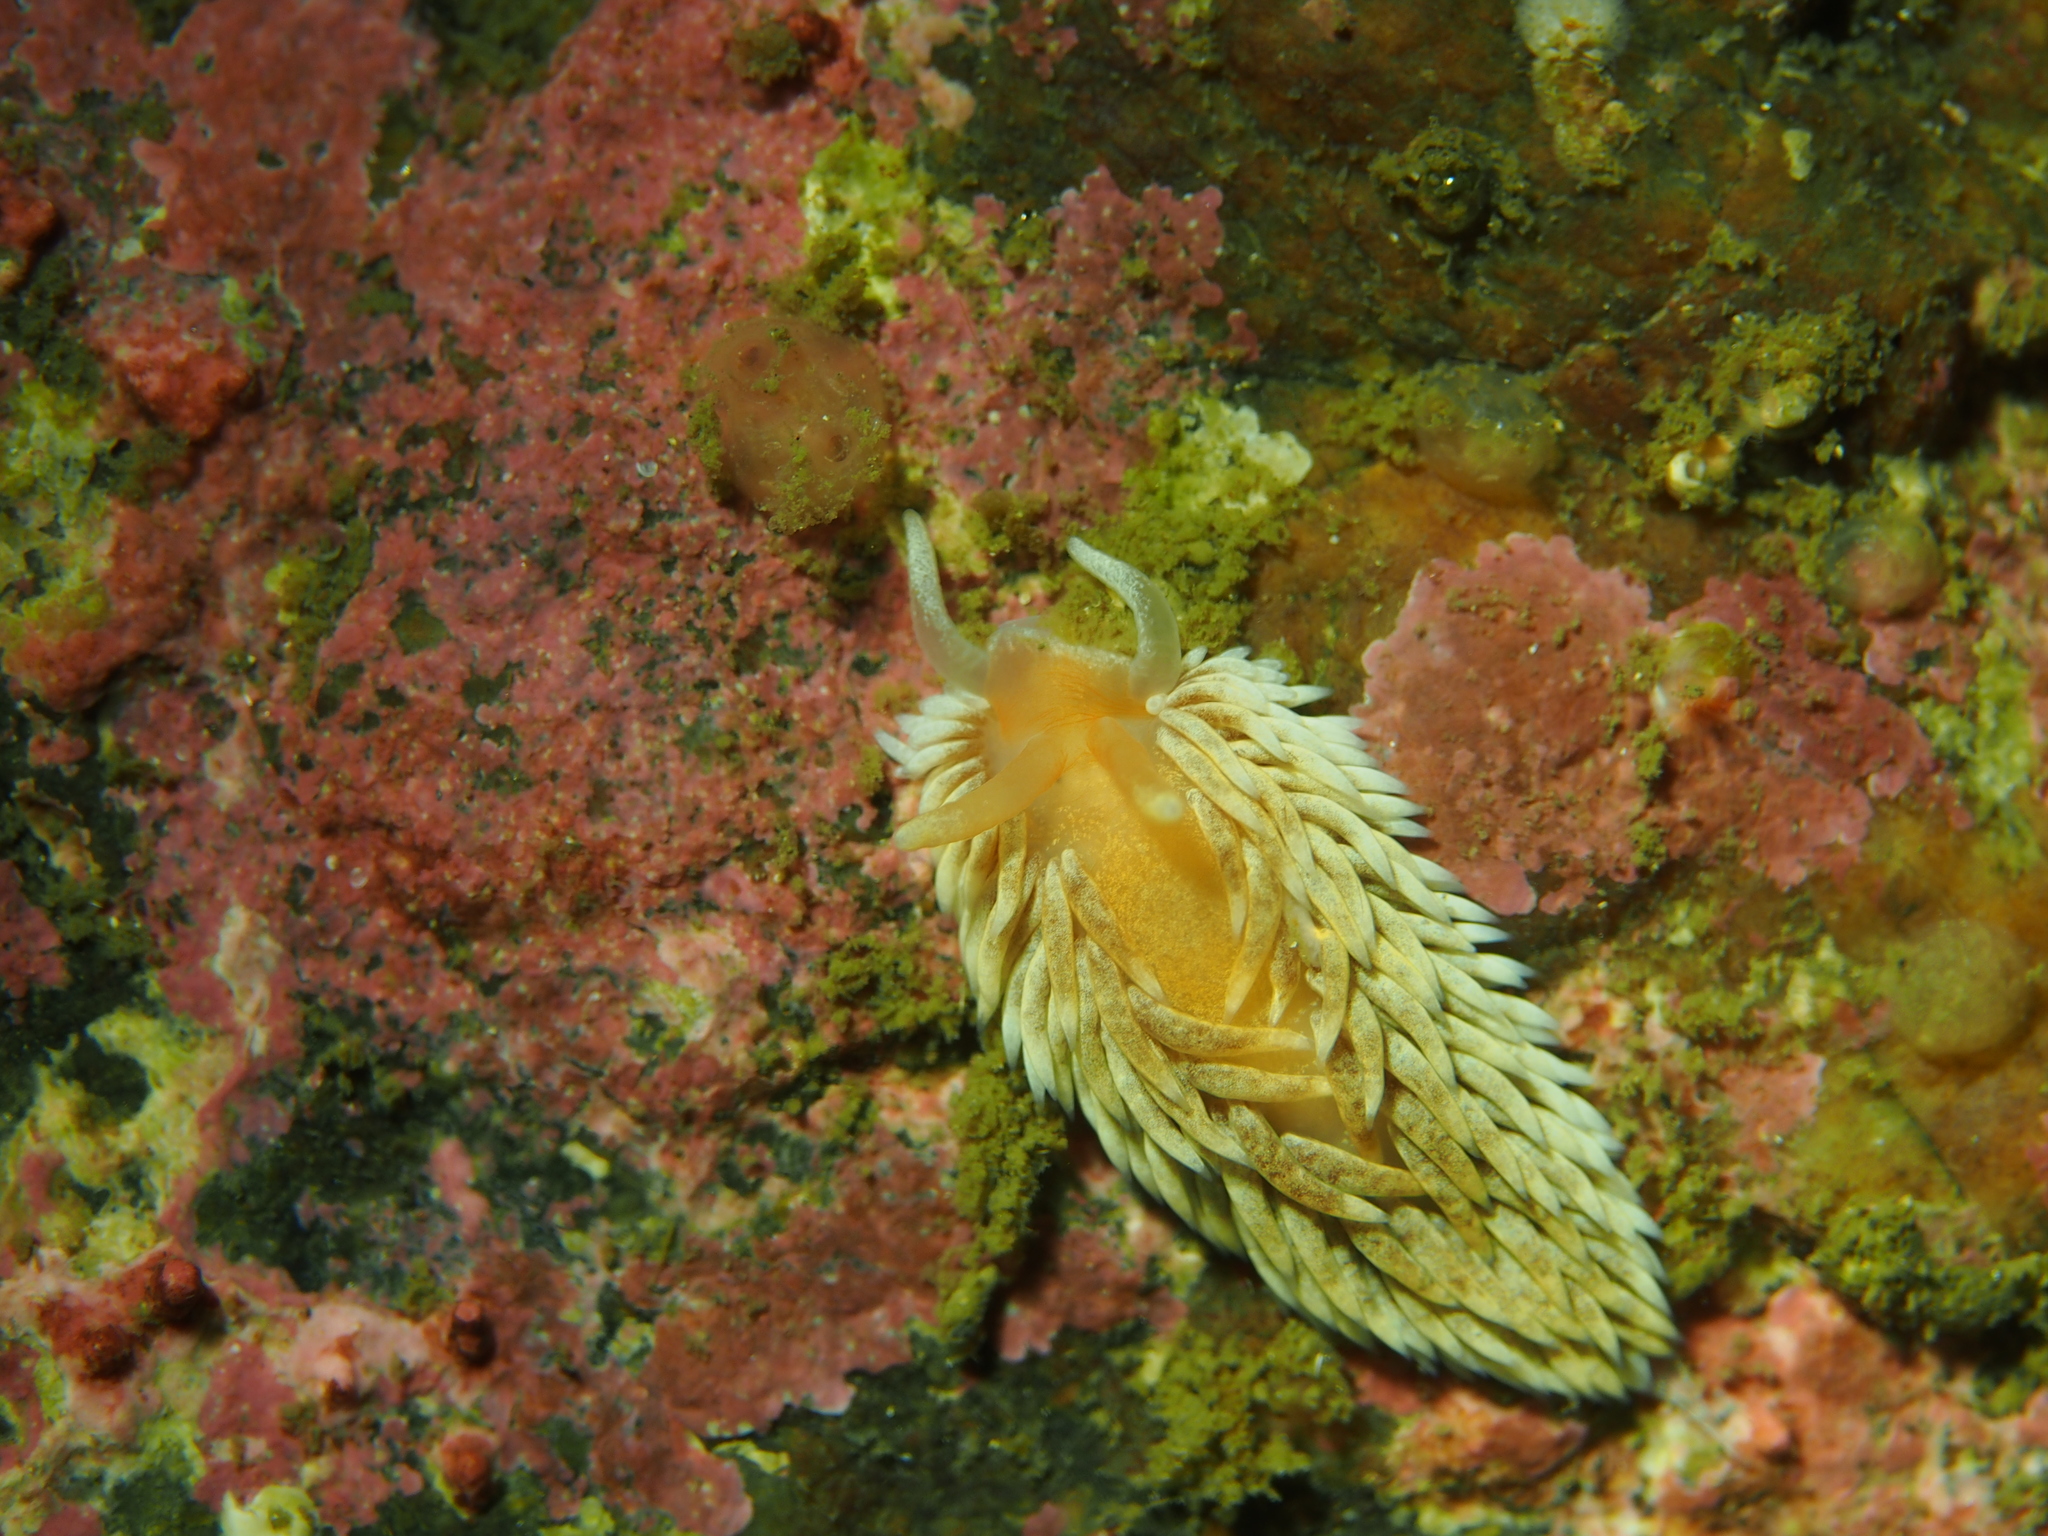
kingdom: Animalia
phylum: Mollusca
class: Gastropoda
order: Nudibranchia
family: Aeolidiidae
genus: Aeolidiella
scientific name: Aeolidiella glauca
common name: Orange-brown aeolid
